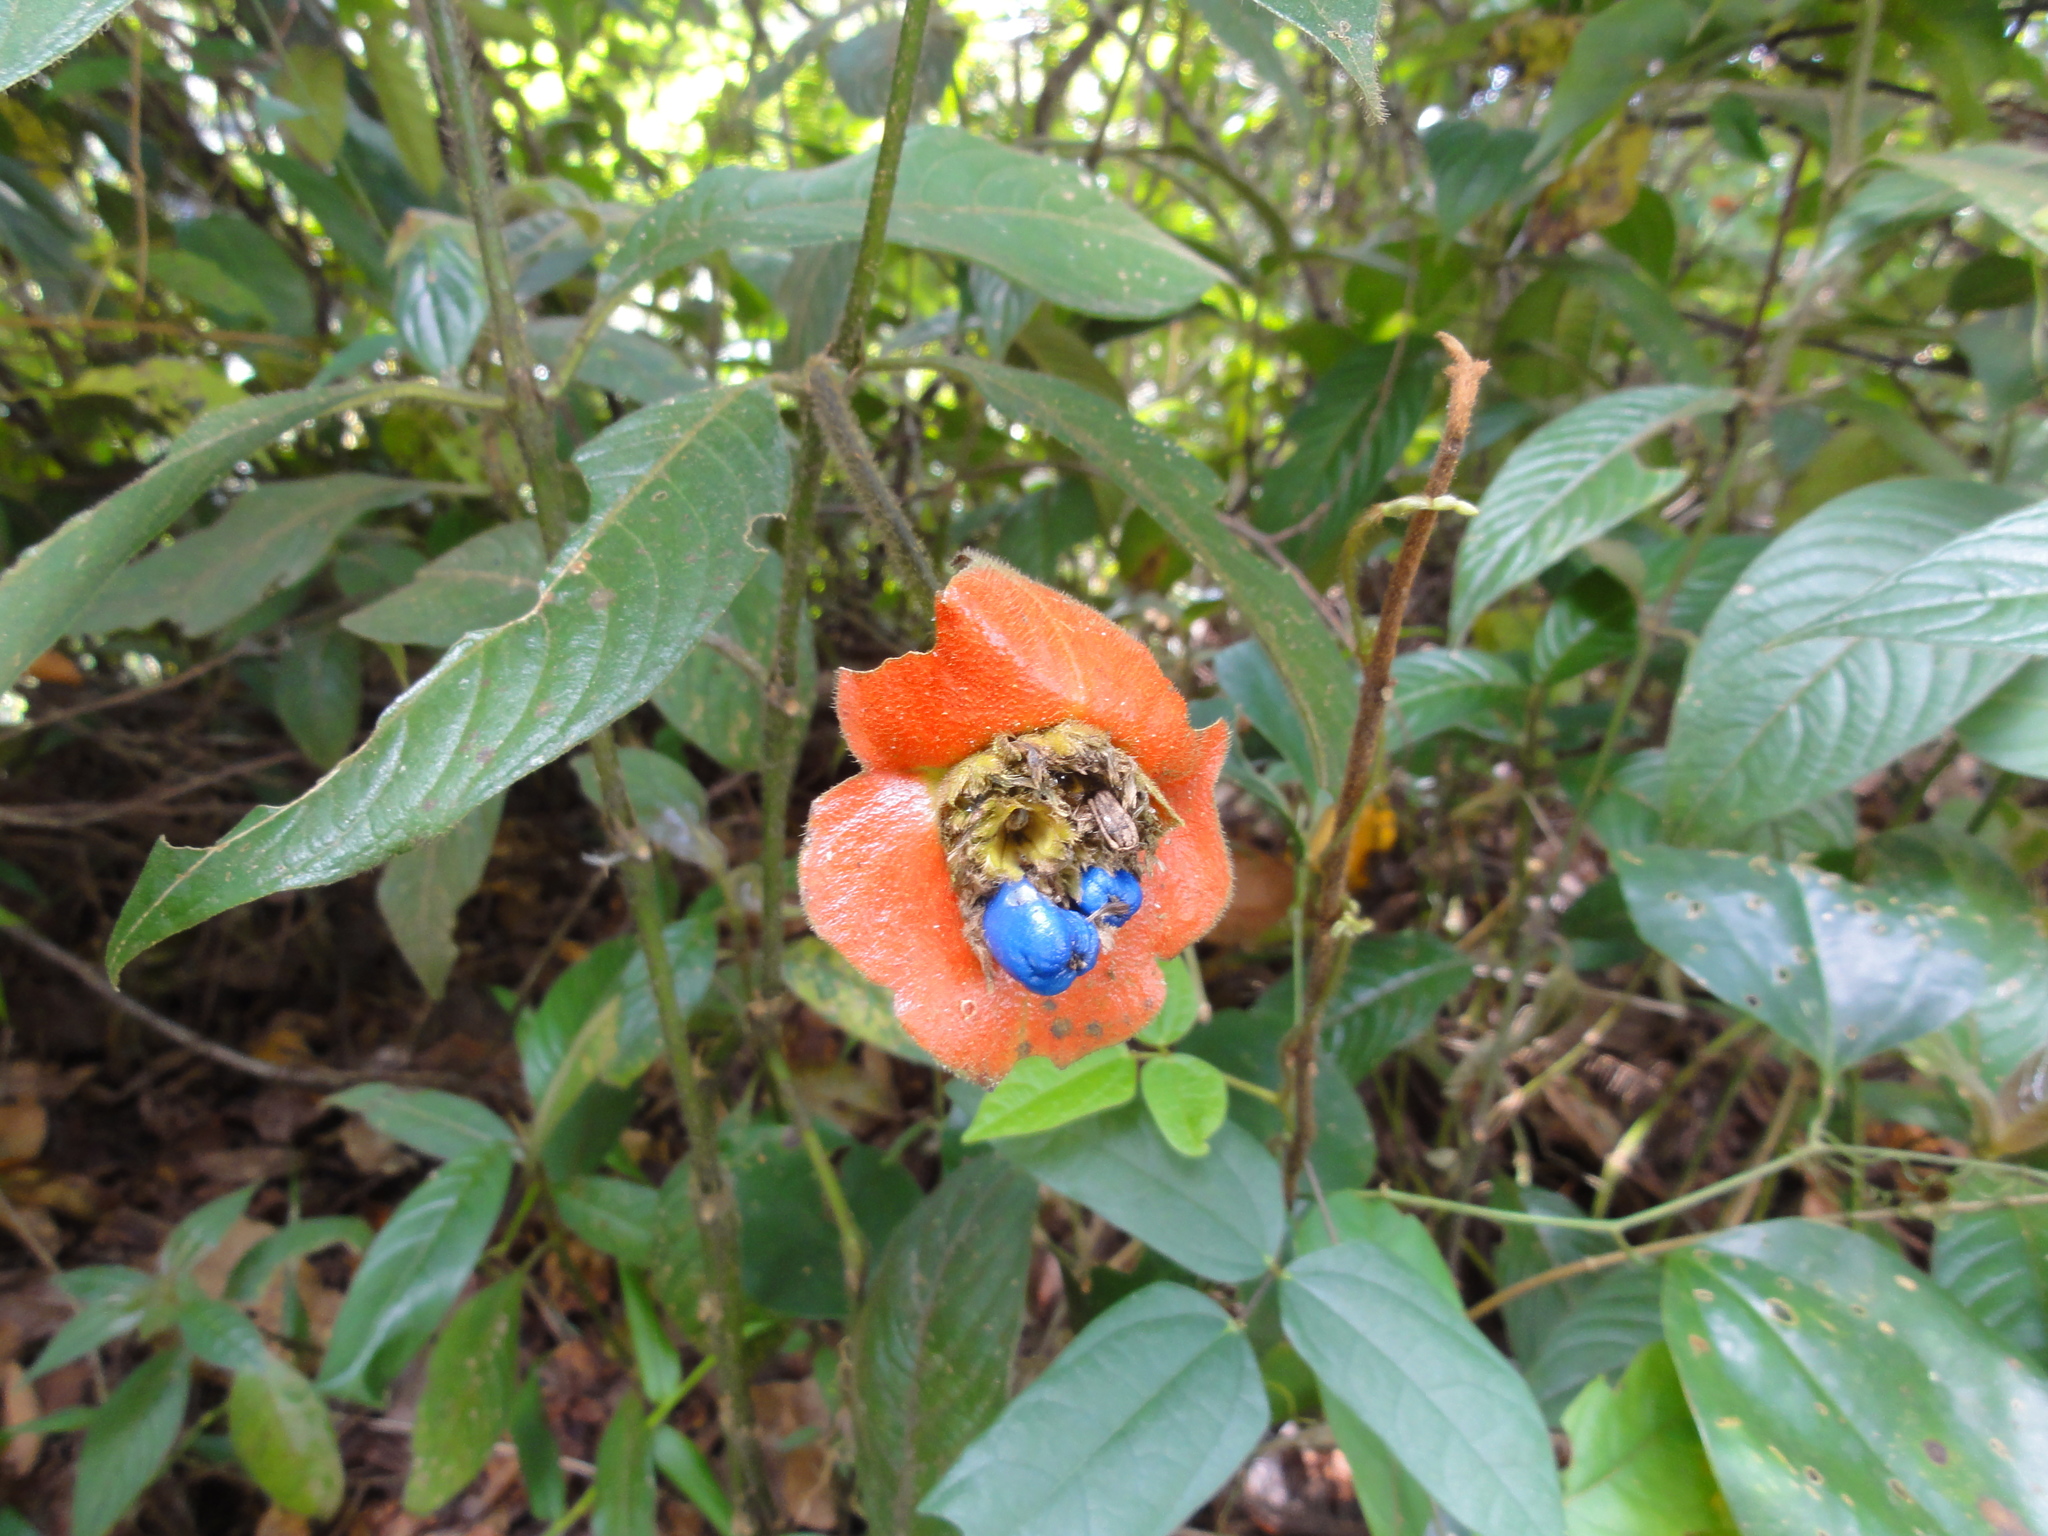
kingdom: Plantae
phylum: Tracheophyta
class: Magnoliopsida
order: Gentianales
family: Rubiaceae
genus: Palicourea
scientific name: Palicourea tomentosa
